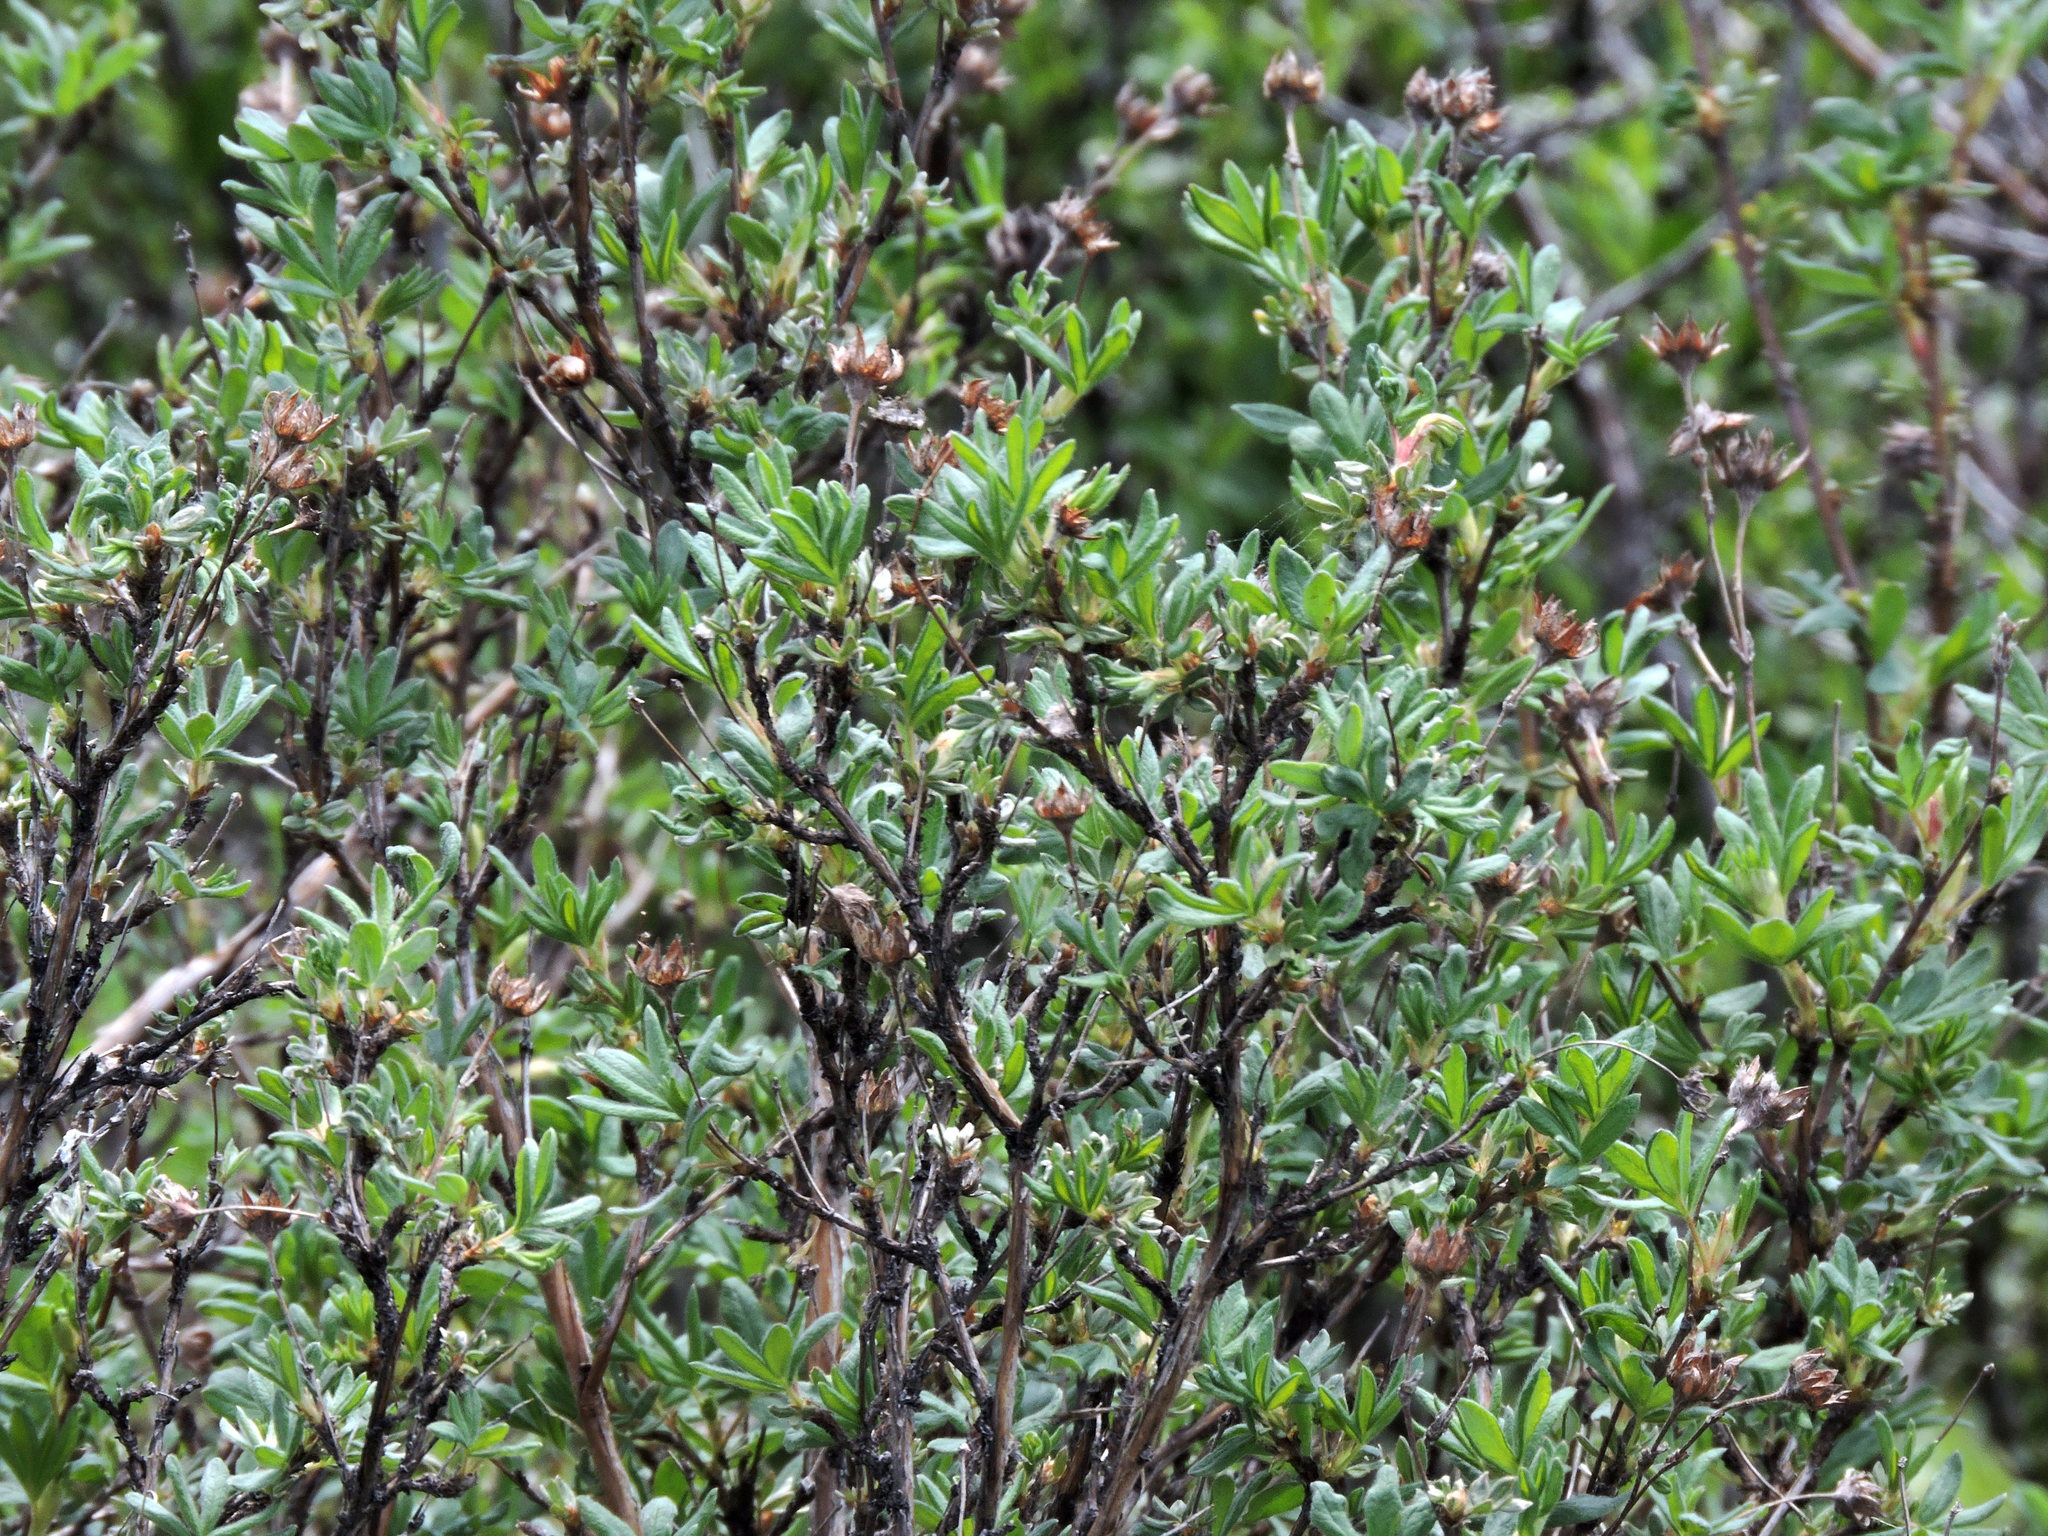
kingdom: Plantae
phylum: Tracheophyta
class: Magnoliopsida
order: Rosales
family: Rosaceae
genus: Dasiphora
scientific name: Dasiphora fruticosa
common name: Shrubby cinquefoil
